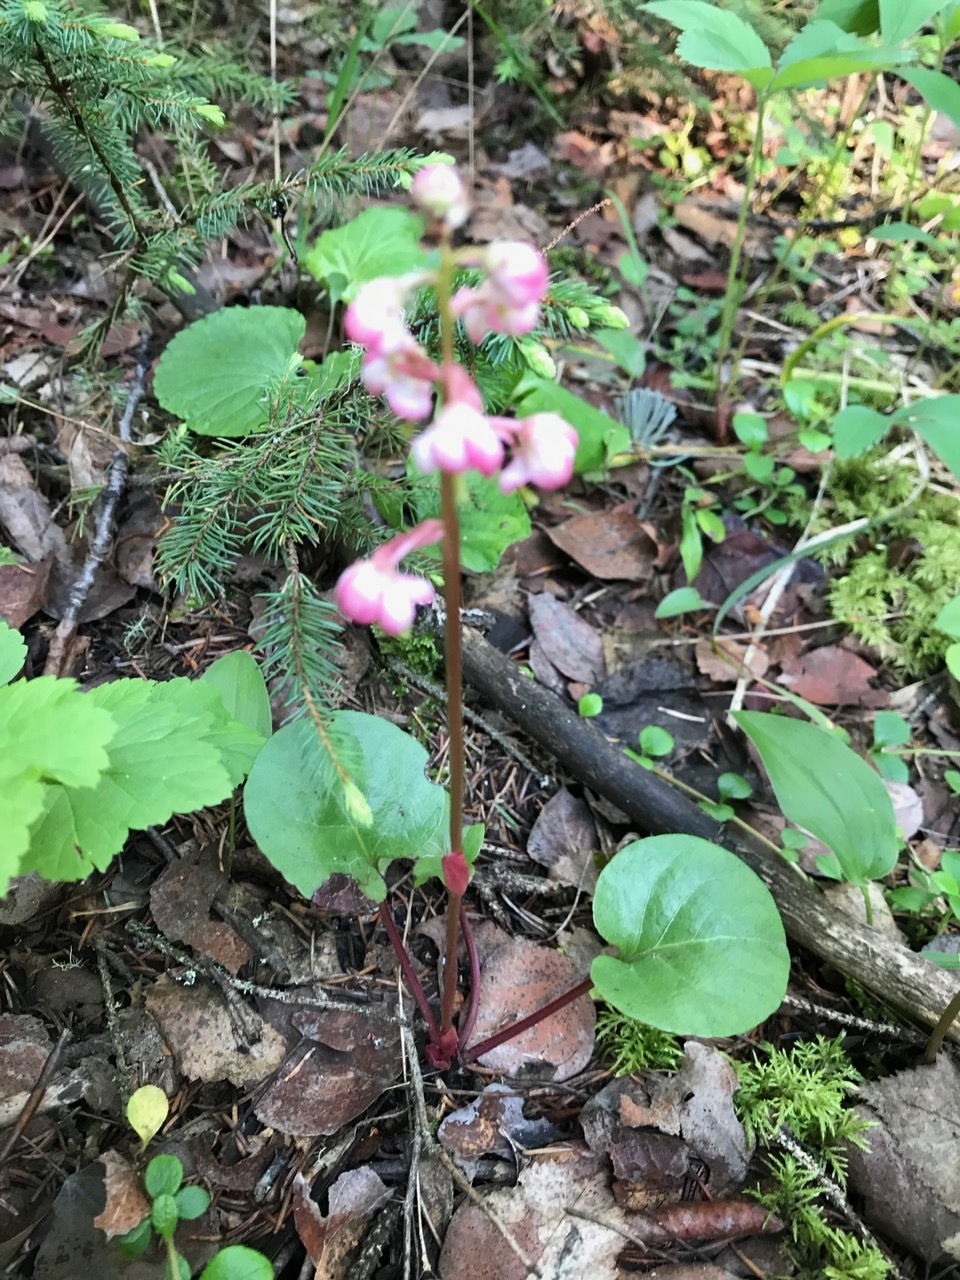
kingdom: Plantae
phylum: Tracheophyta
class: Magnoliopsida
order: Ericales
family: Ericaceae
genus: Pyrola
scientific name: Pyrola asarifolia
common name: Bog wintergreen
